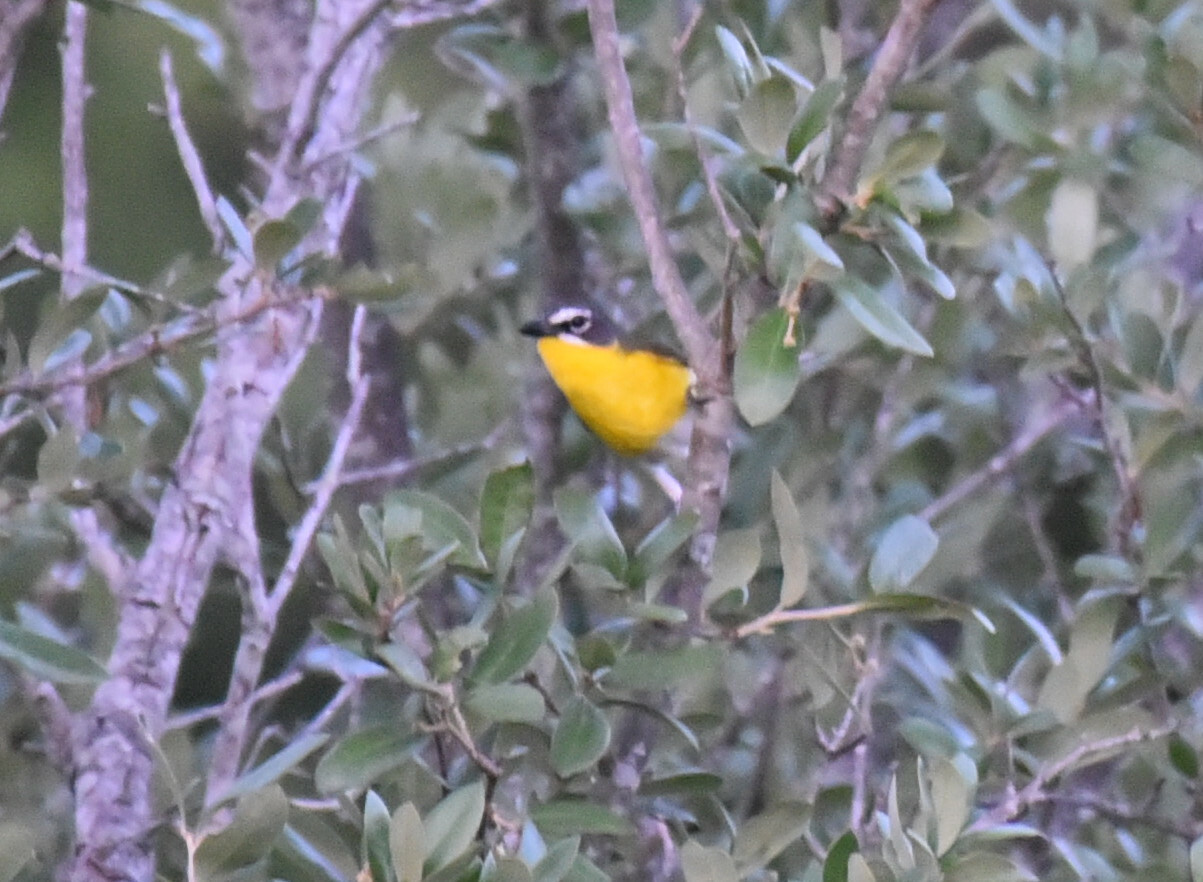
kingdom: Animalia
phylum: Chordata
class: Aves
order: Passeriformes
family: Parulidae
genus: Icteria
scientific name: Icteria virens
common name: Yellow-breasted chat
